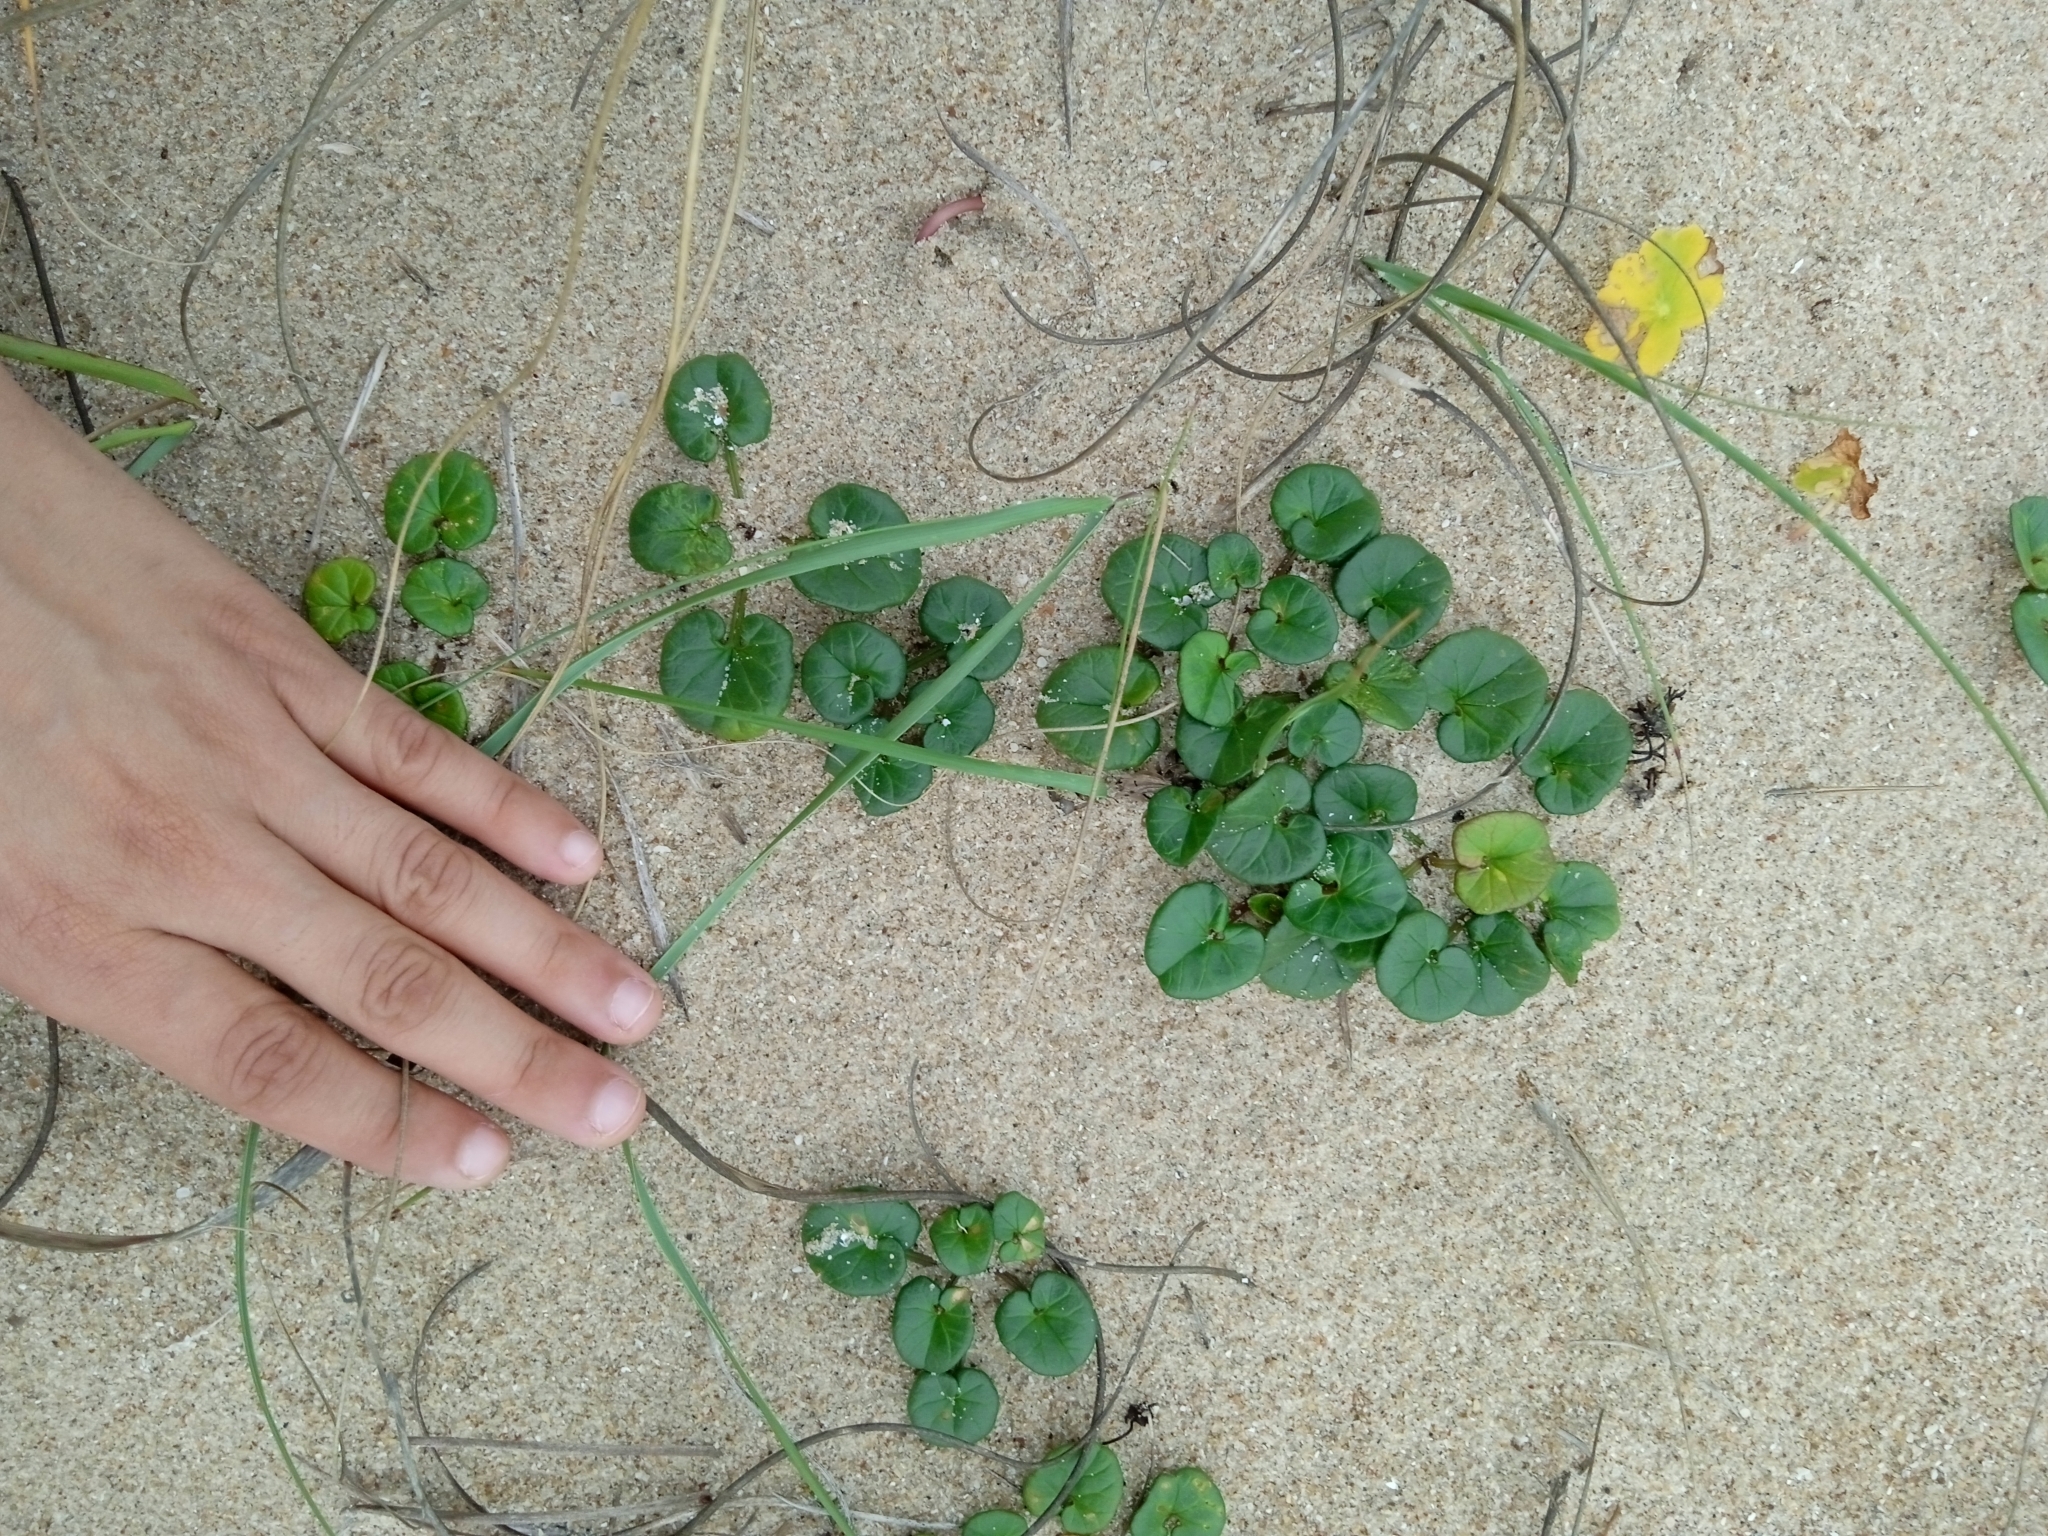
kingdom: Plantae
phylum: Tracheophyta
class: Magnoliopsida
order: Solanales
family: Convolvulaceae
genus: Calystegia
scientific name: Calystegia soldanella
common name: Sea bindweed
